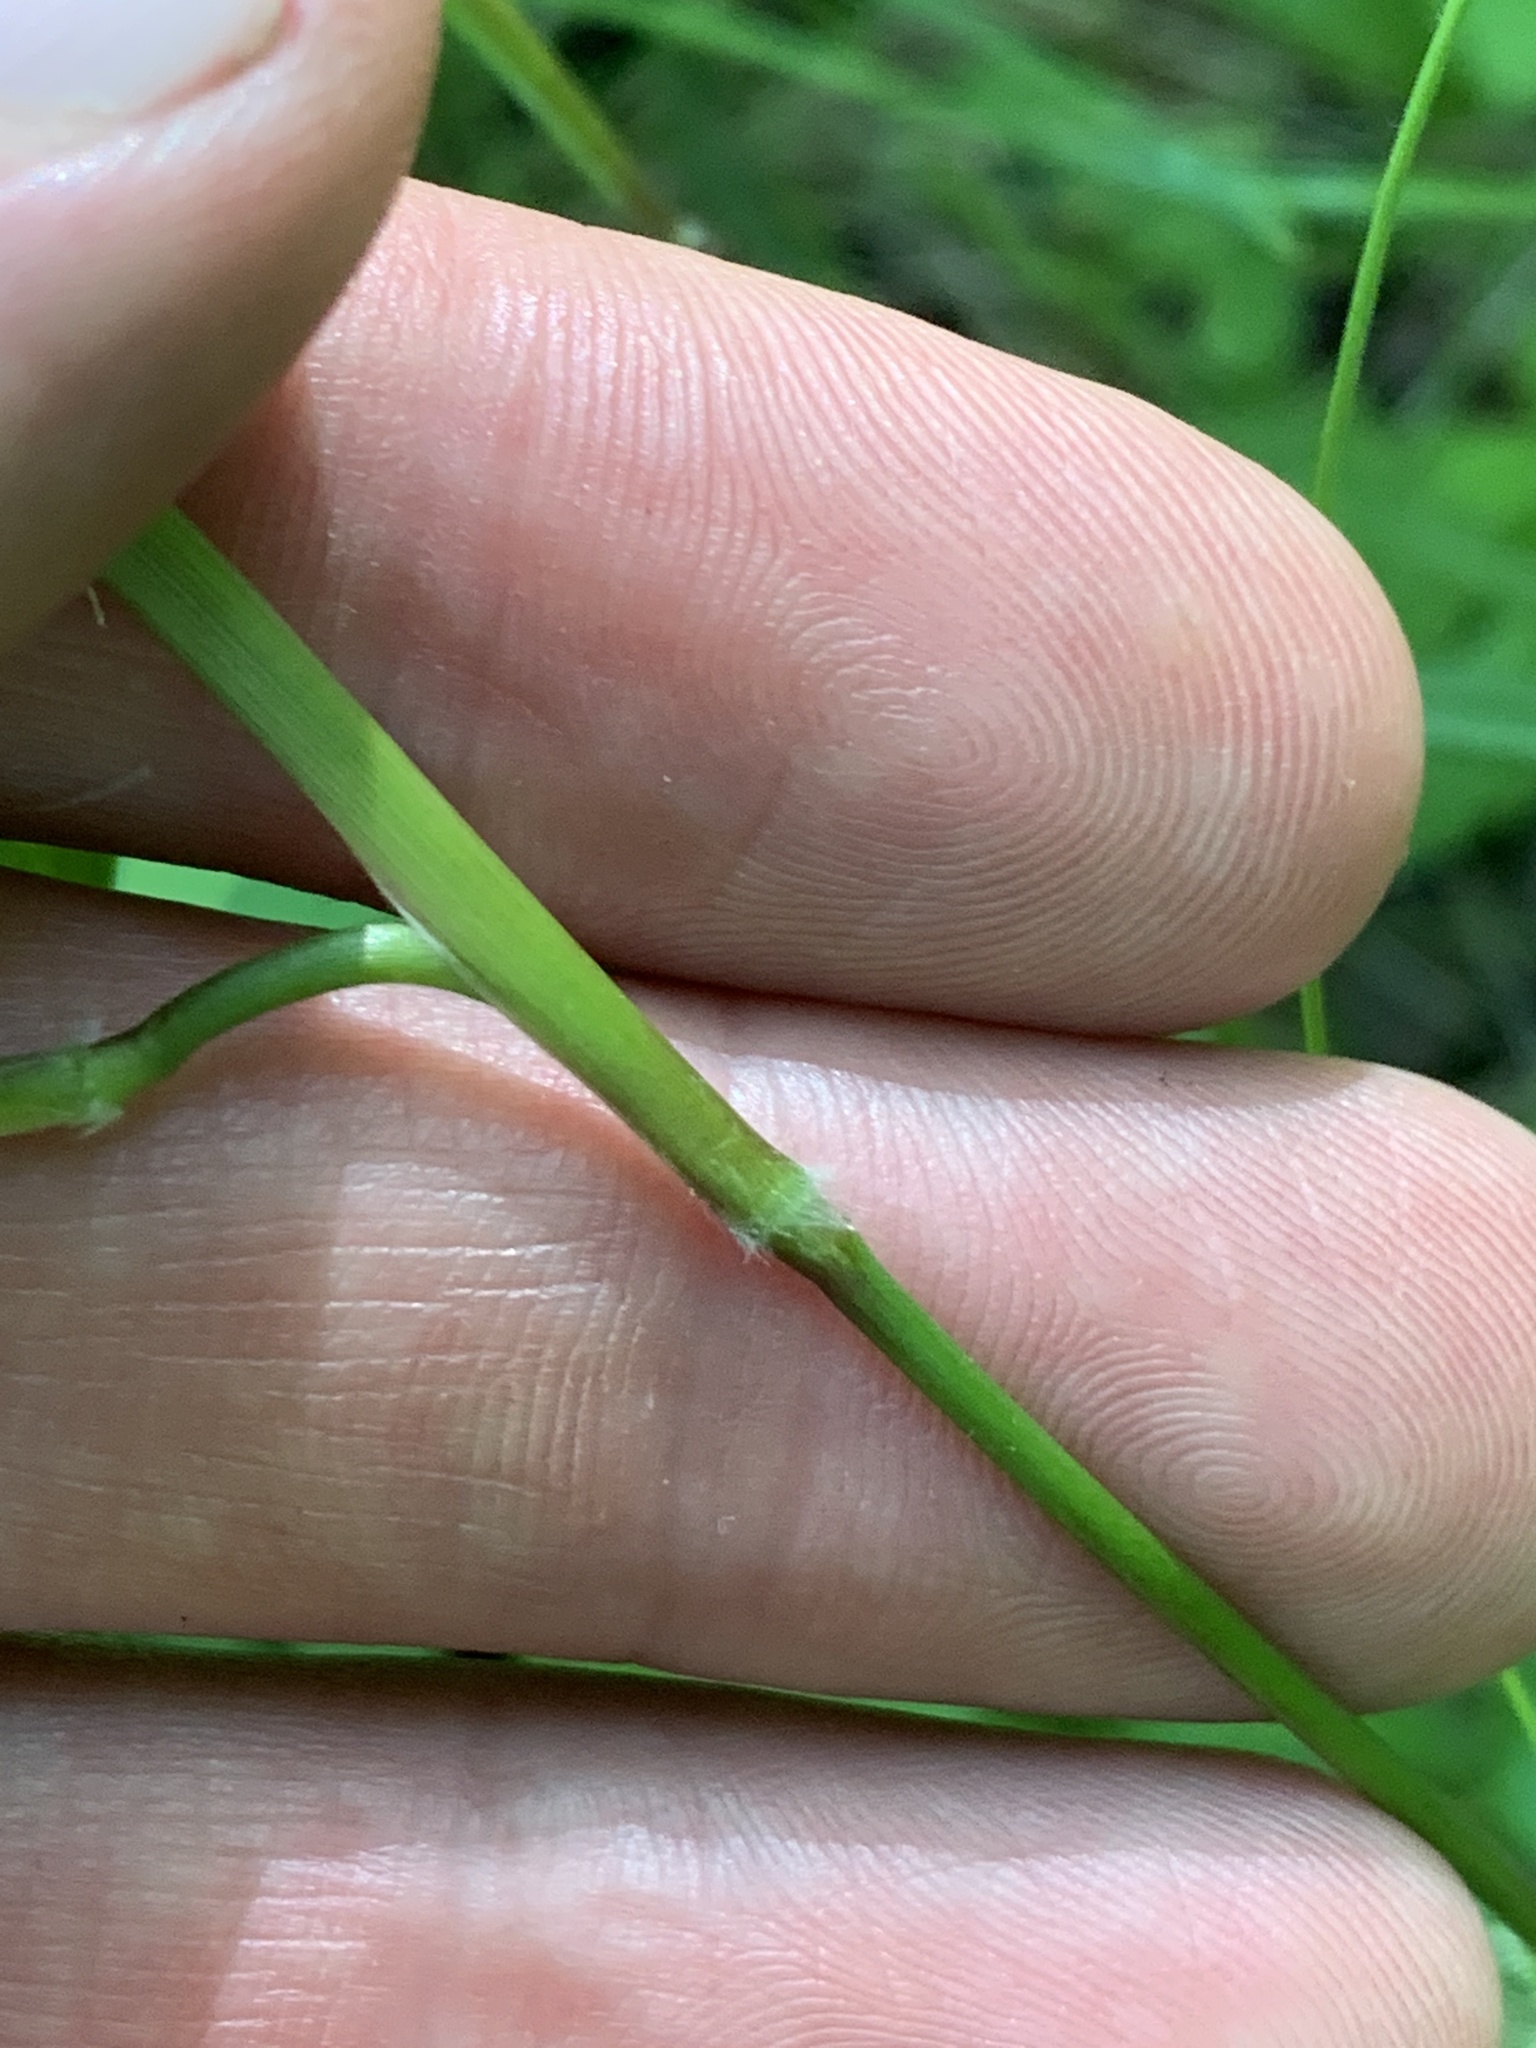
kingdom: Plantae
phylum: Tracheophyta
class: Liliopsida
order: Poales
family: Poaceae
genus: Dichanthelium
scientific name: Dichanthelium boscii
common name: Bosc's panic grass
